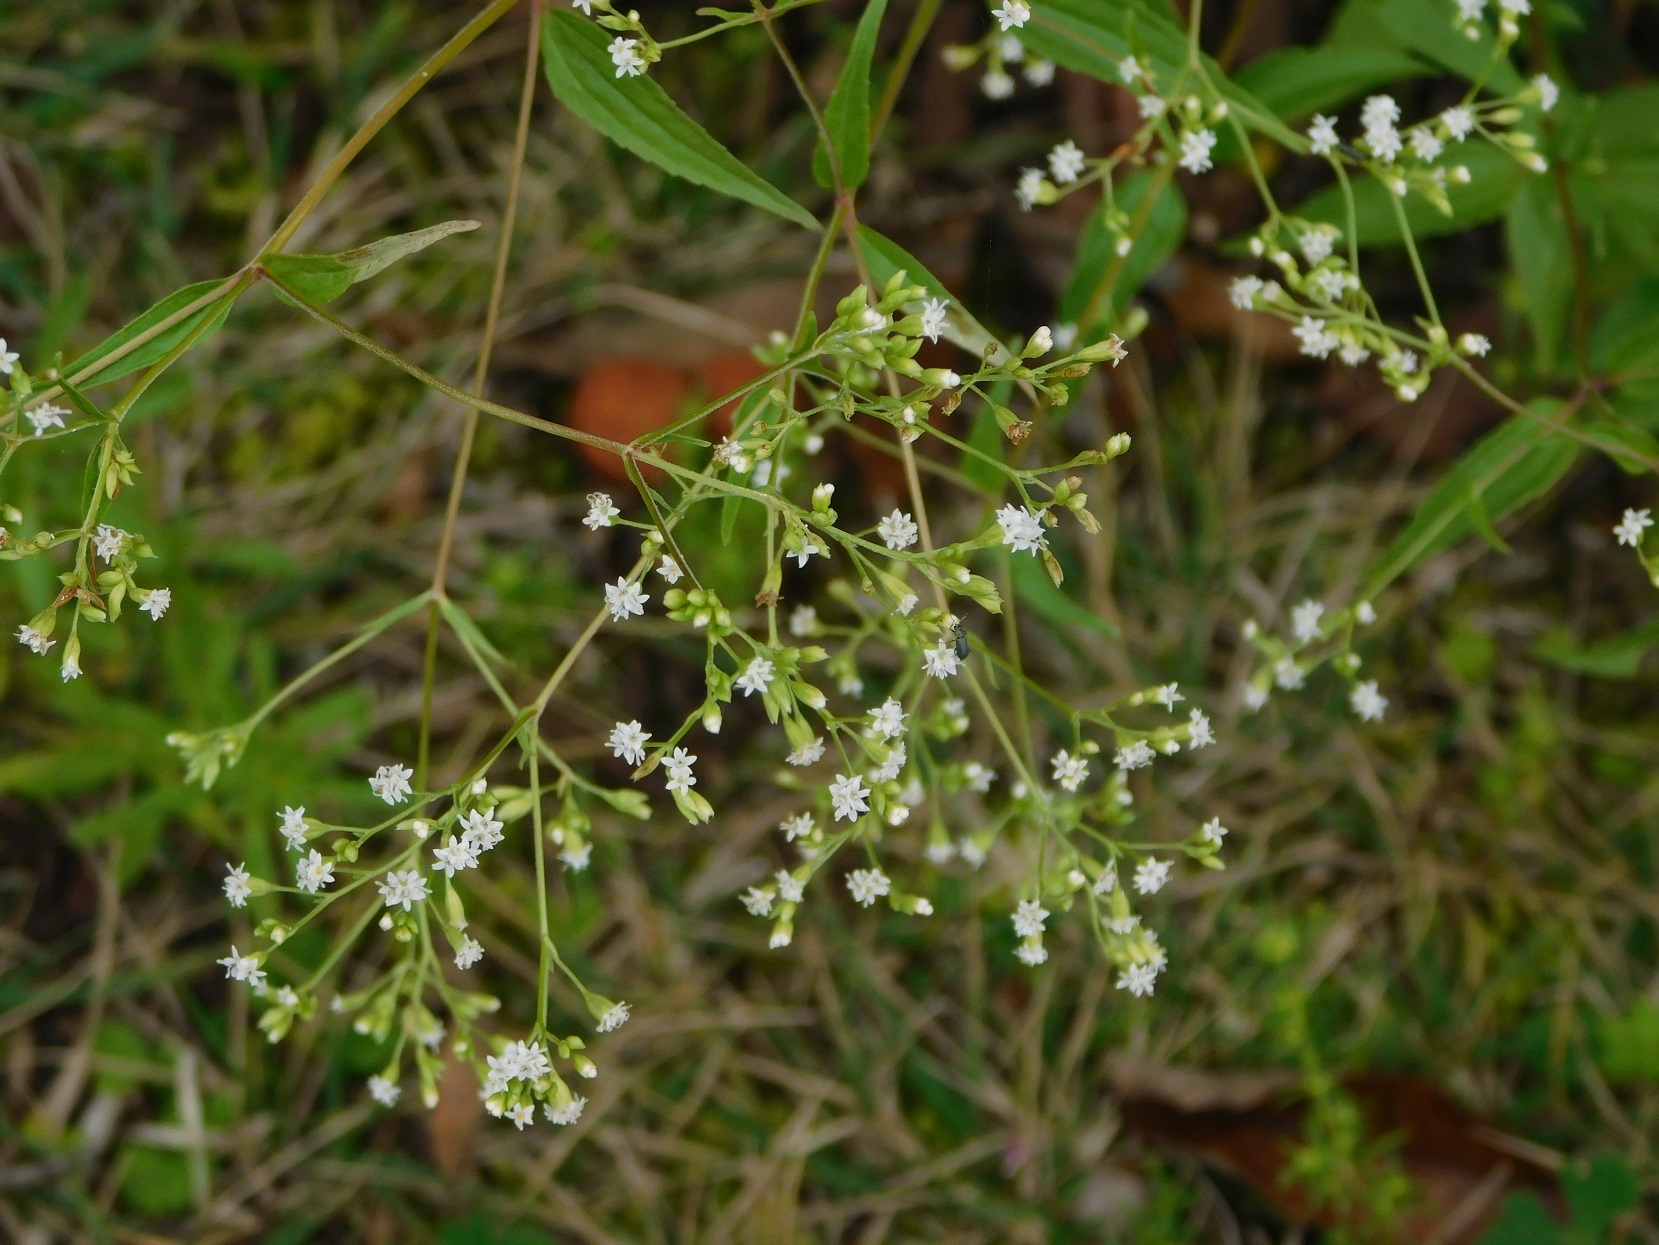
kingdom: Plantae
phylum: Tracheophyta
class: Magnoliopsida
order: Asterales
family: Asteraceae
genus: Piqueria
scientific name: Piqueria trinervia
